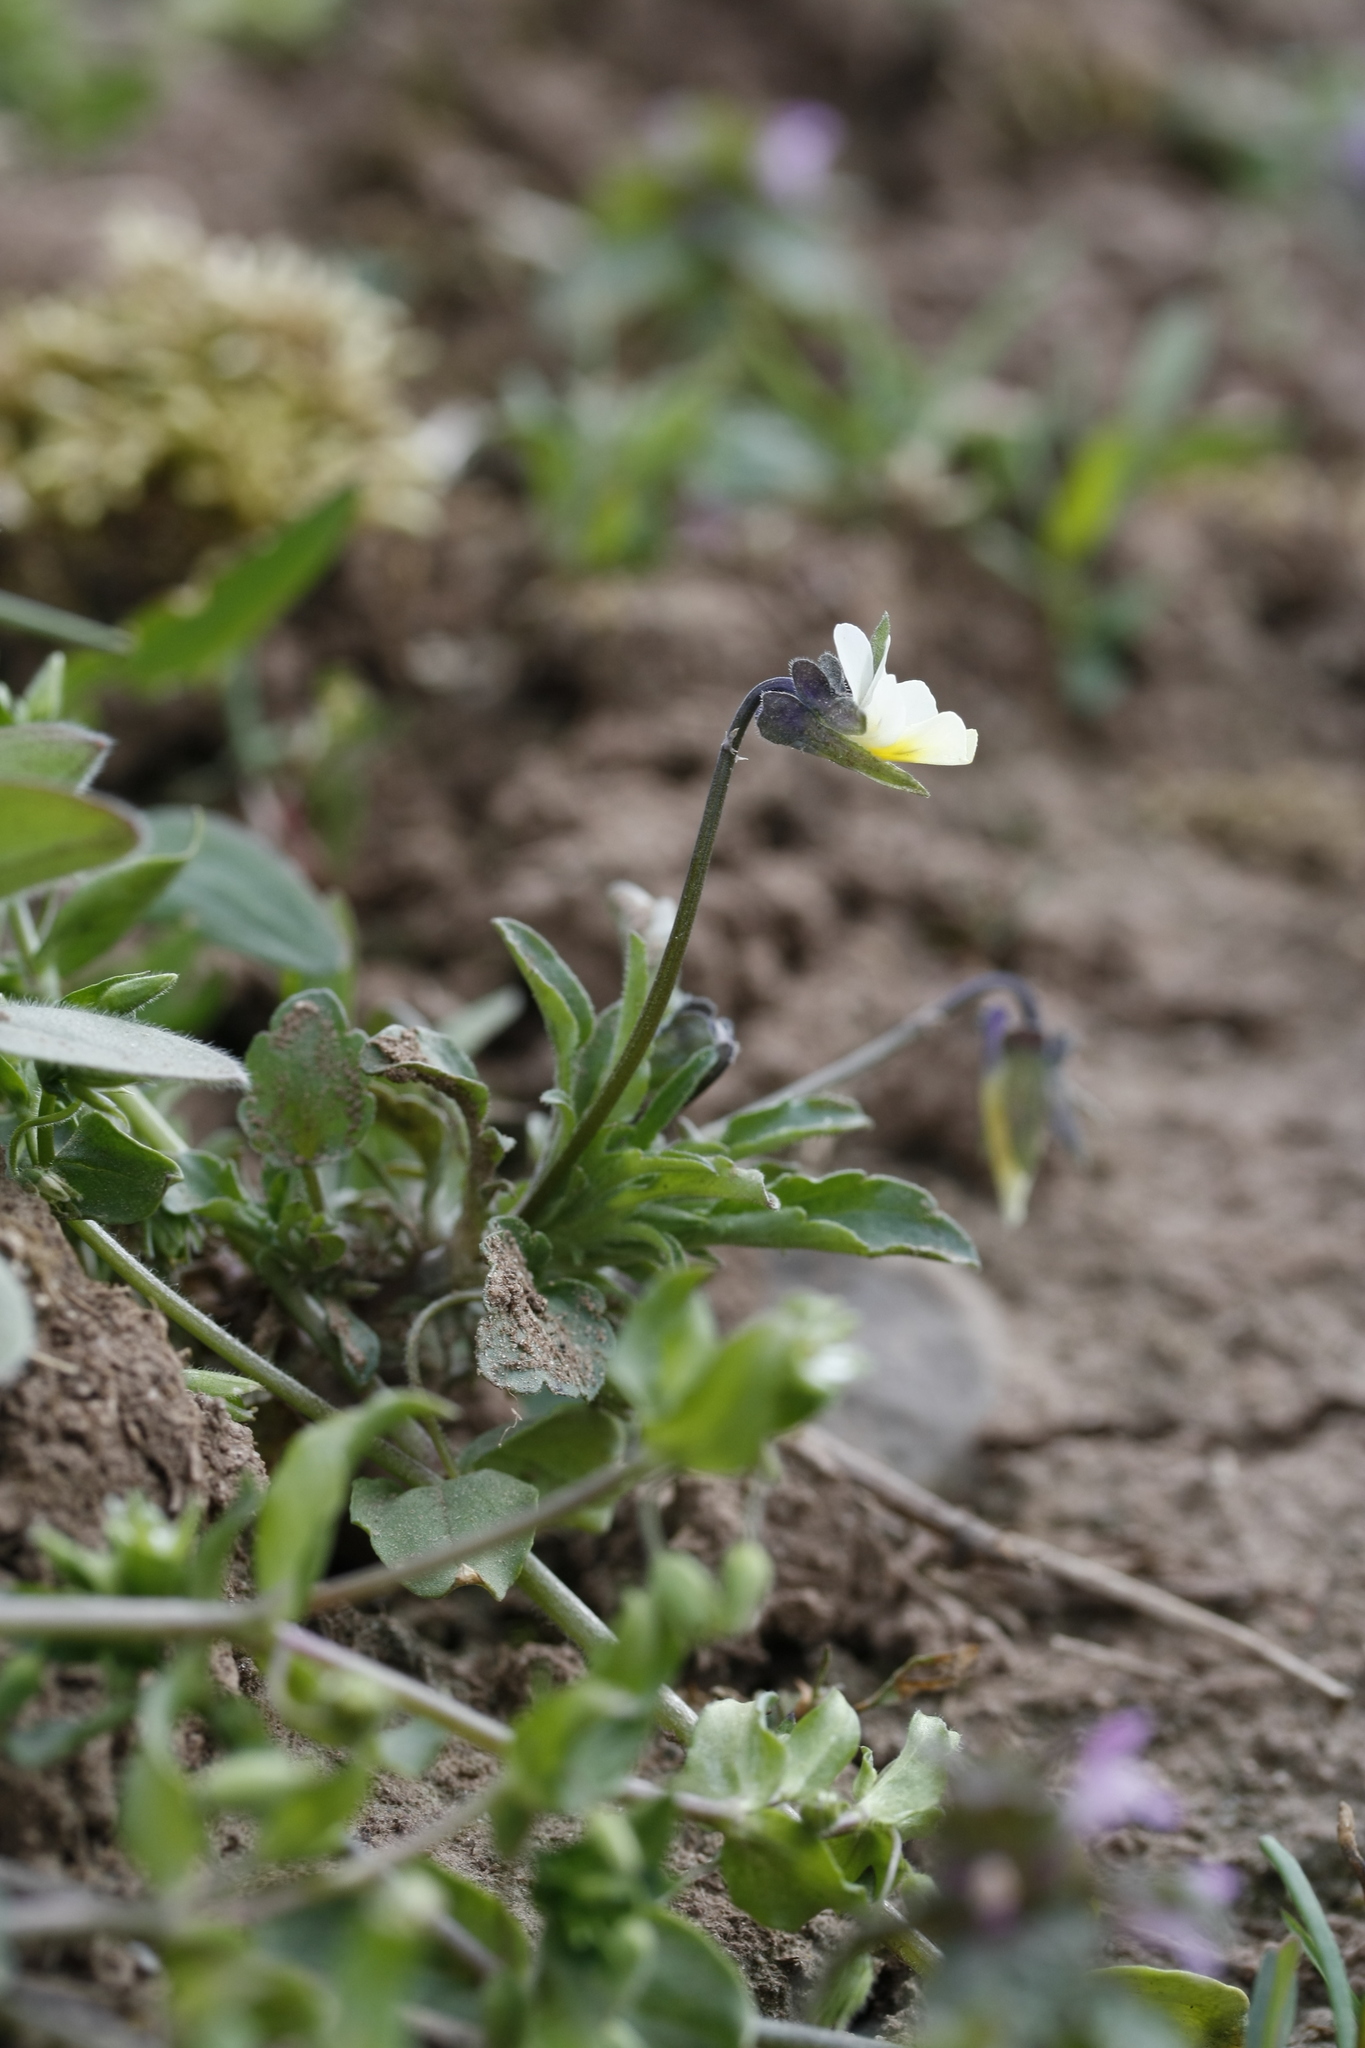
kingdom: Plantae
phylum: Tracheophyta
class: Magnoliopsida
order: Malpighiales
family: Violaceae
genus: Viola
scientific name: Viola arvensis
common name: Field pansy
